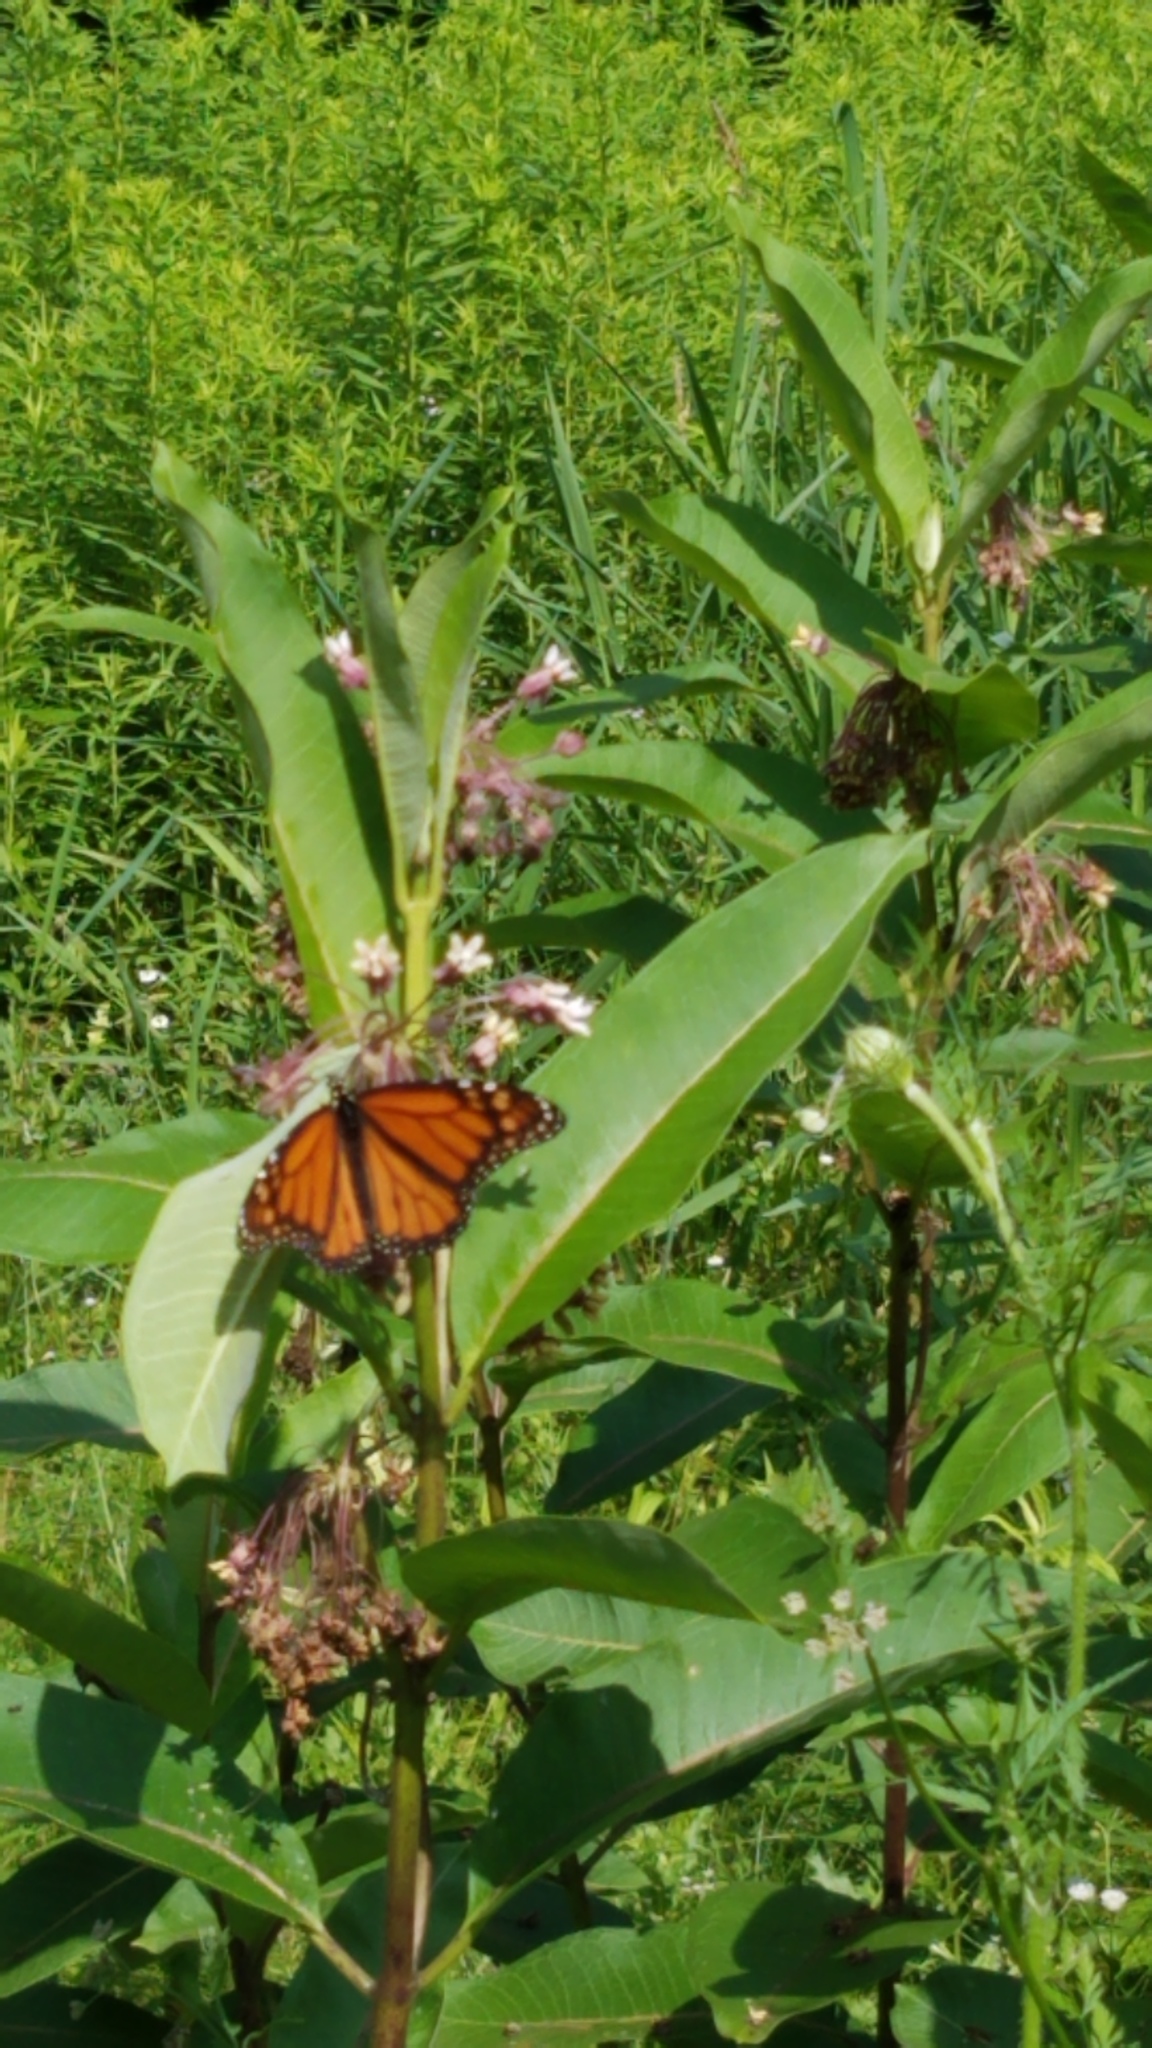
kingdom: Animalia
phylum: Arthropoda
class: Insecta
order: Lepidoptera
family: Nymphalidae
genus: Danaus
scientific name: Danaus plexippus
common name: Monarch
